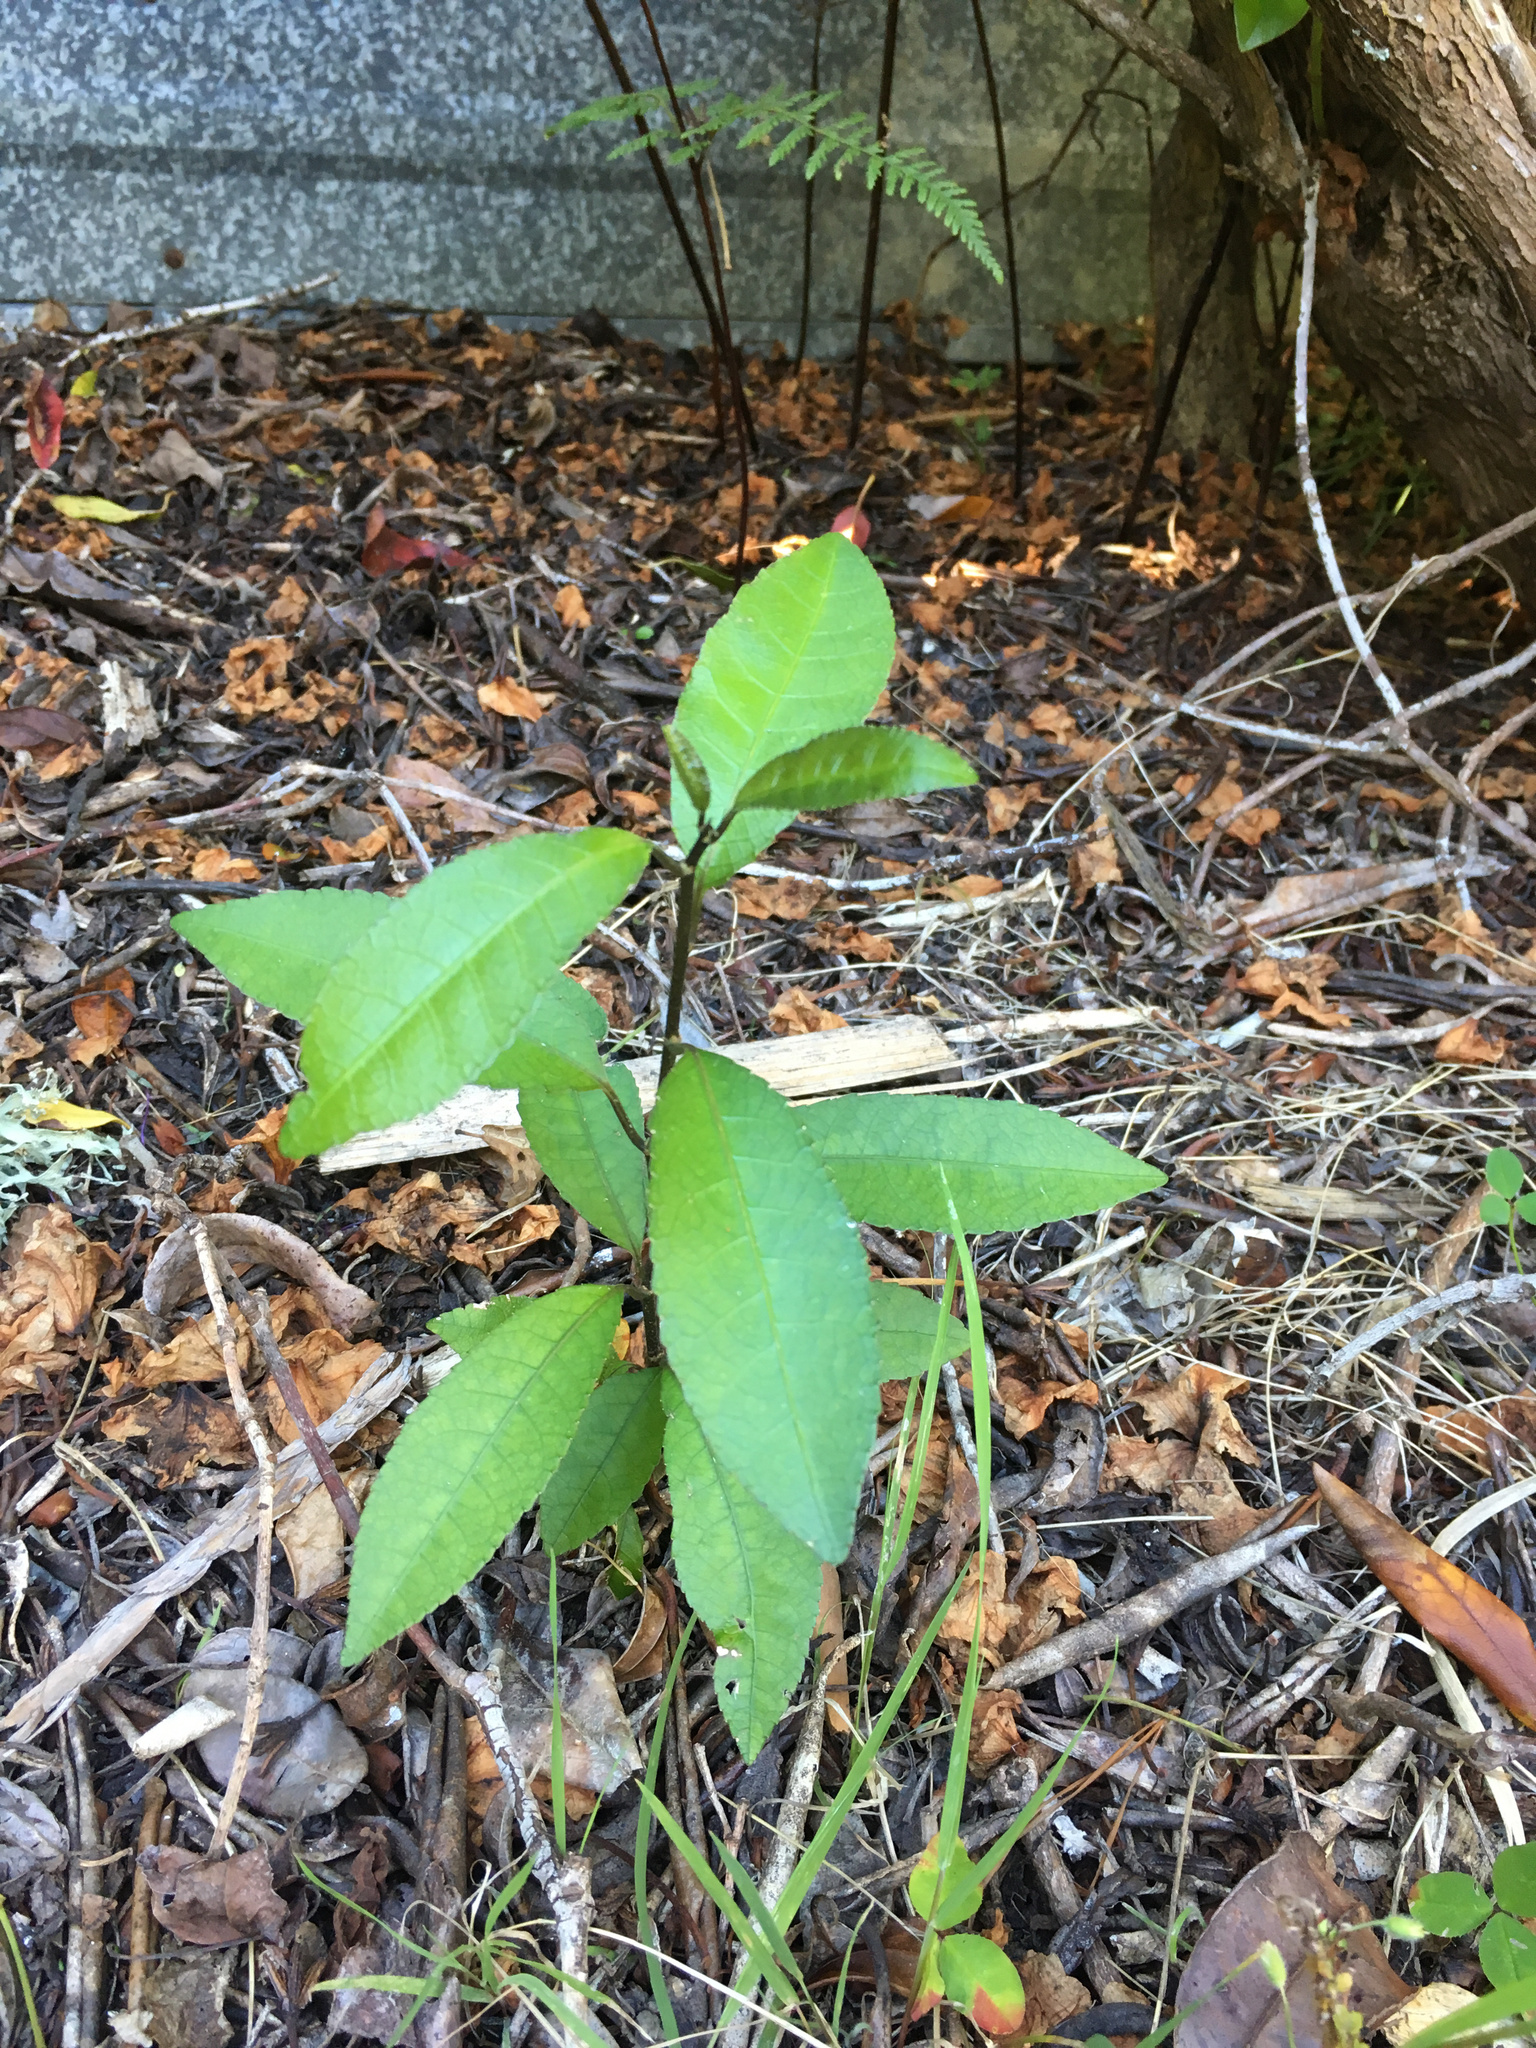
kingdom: Plantae
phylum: Tracheophyta
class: Magnoliopsida
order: Malpighiales
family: Violaceae
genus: Melicytus
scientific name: Melicytus ramiflorus
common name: Mahoe
